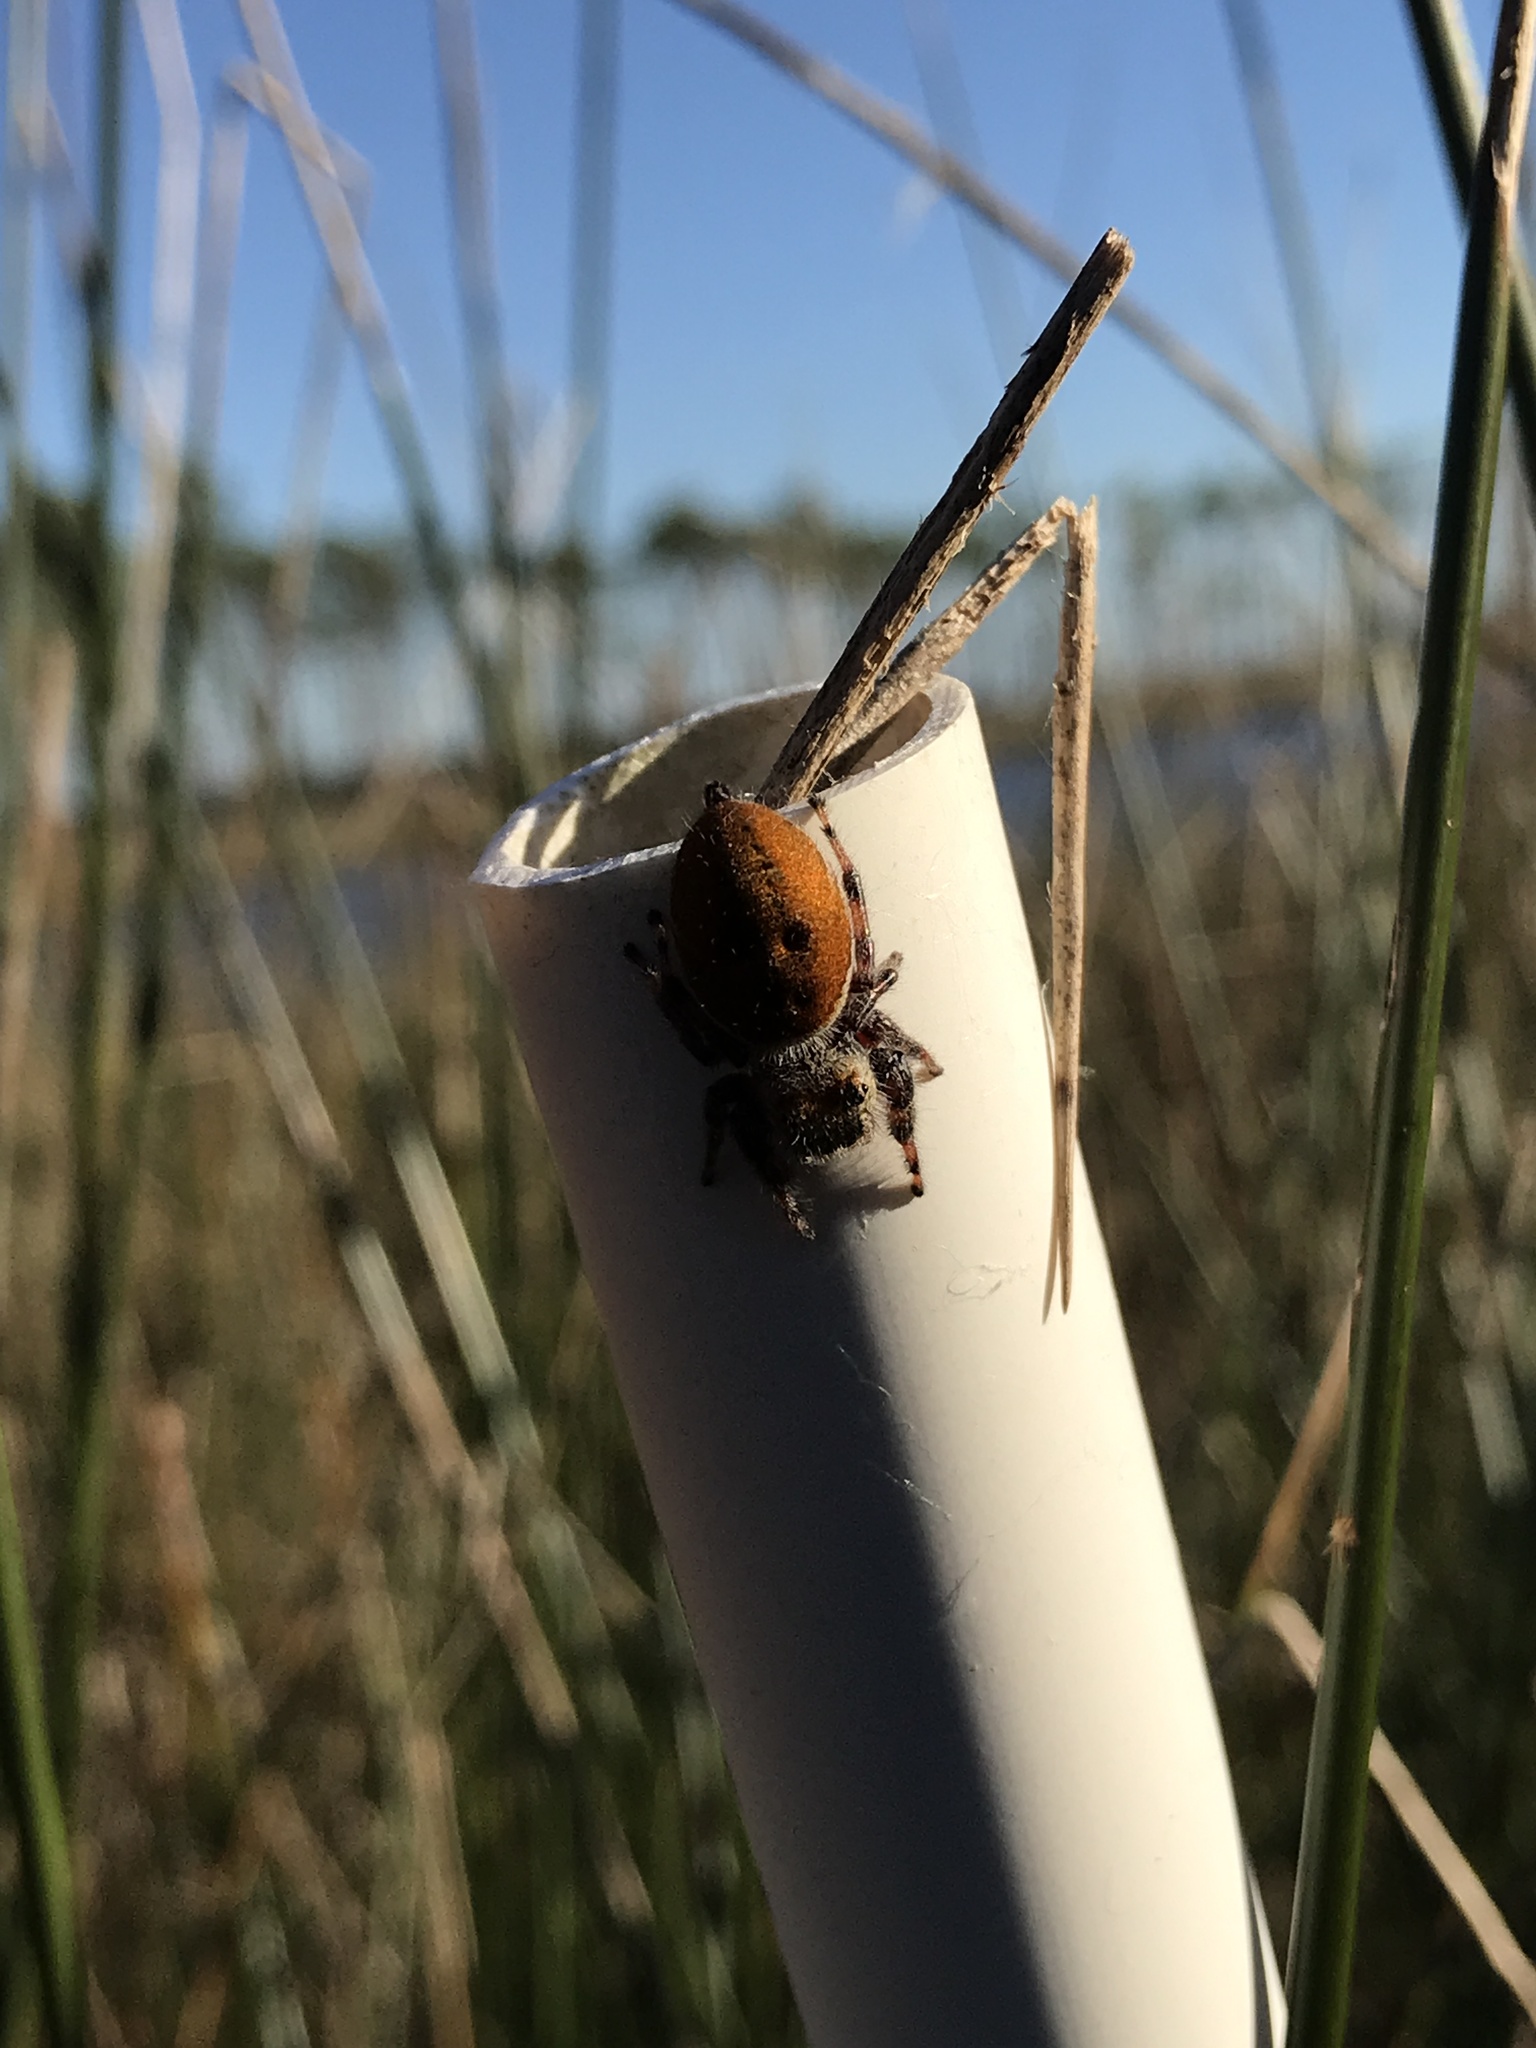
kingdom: Animalia
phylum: Arthropoda
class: Arachnida
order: Araneae
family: Salticidae
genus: Phidippus
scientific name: Phidippus clarus
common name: Brilliant jumping spider
